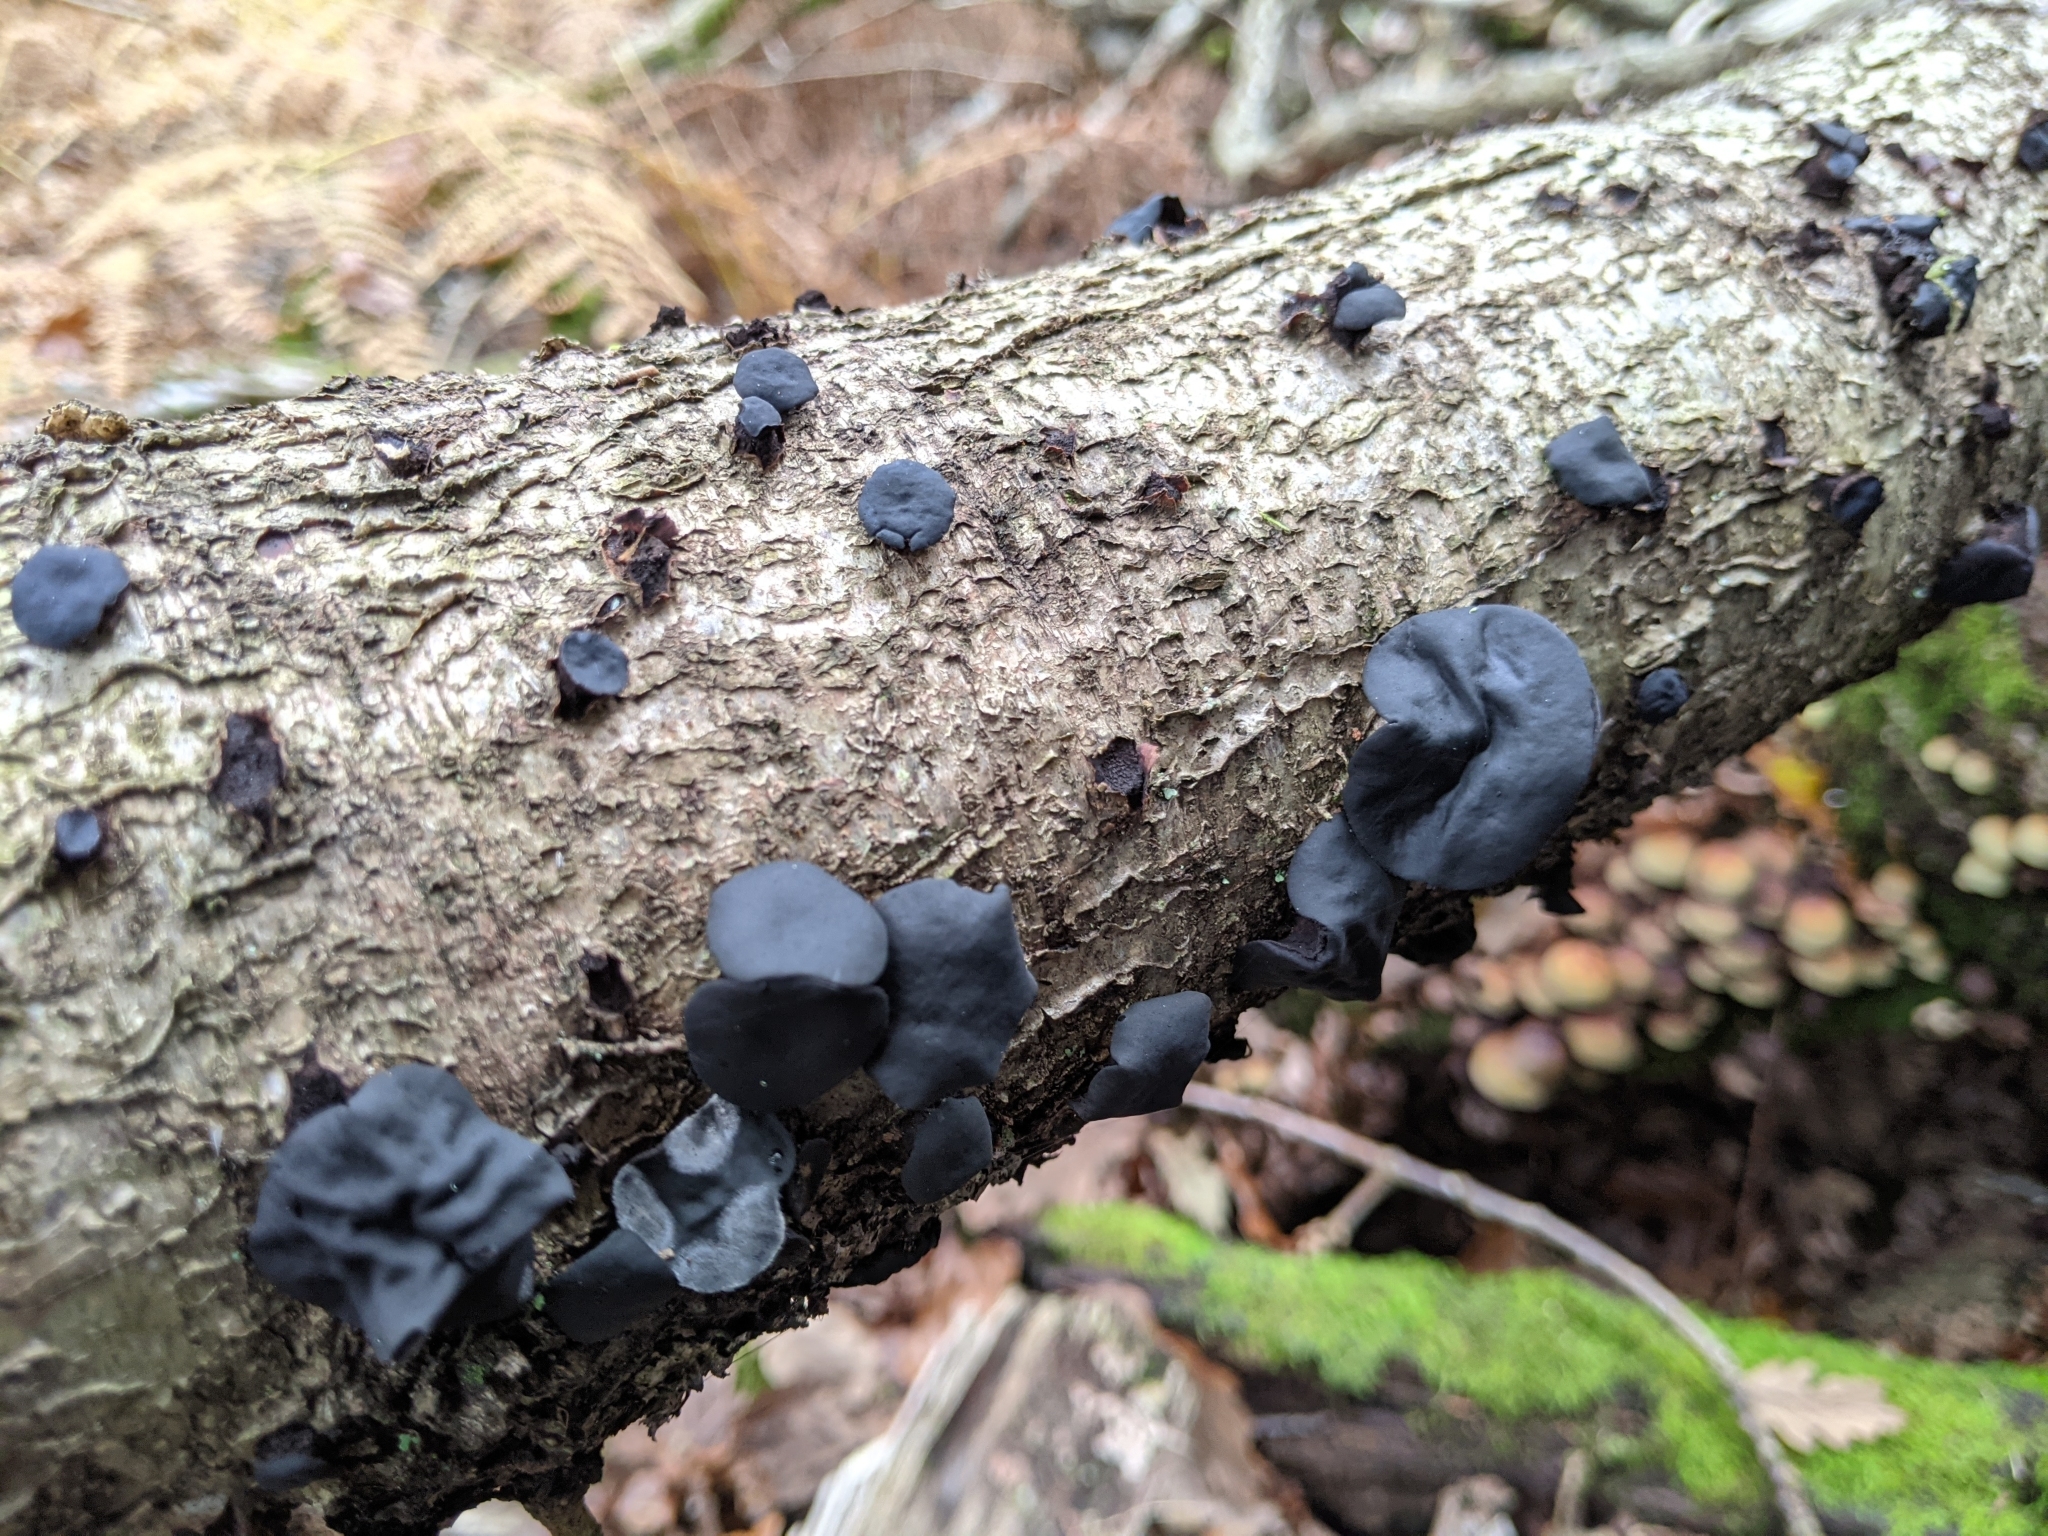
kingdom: Fungi
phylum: Ascomycota
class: Leotiomycetes
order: Phacidiales
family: Phacidiaceae
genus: Bulgaria
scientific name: Bulgaria inquinans
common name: Black bulgar
